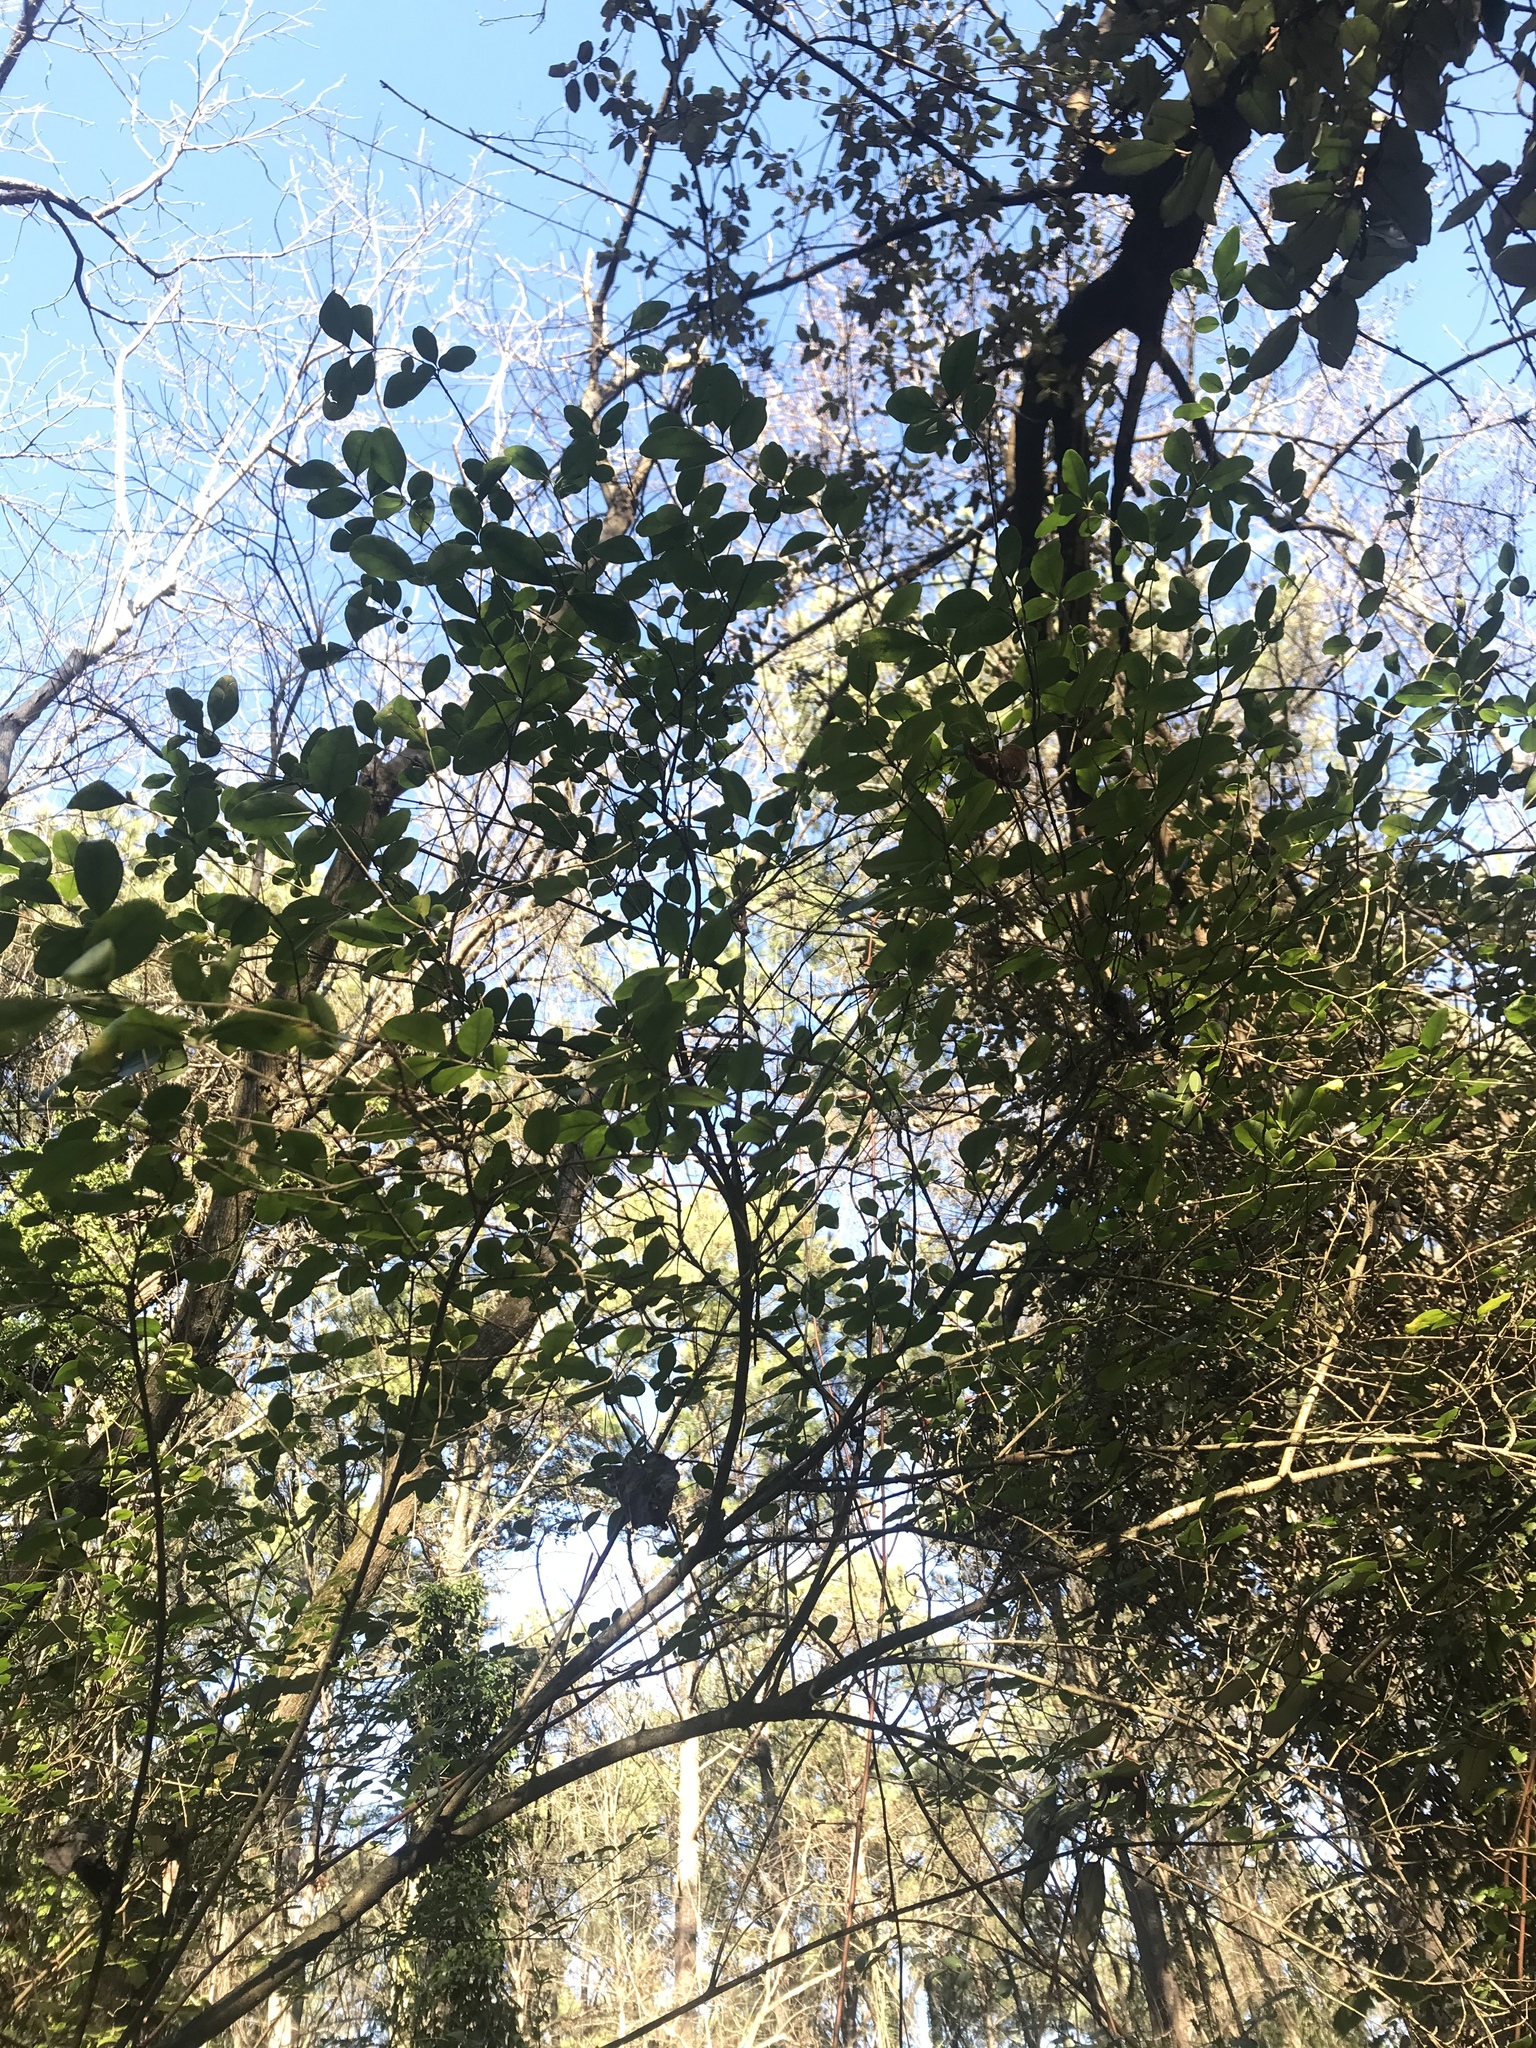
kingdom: Plantae
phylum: Tracheophyta
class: Magnoliopsida
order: Lamiales
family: Oleaceae
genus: Ligustrum
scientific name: Ligustrum sinense
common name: Chinese privet
